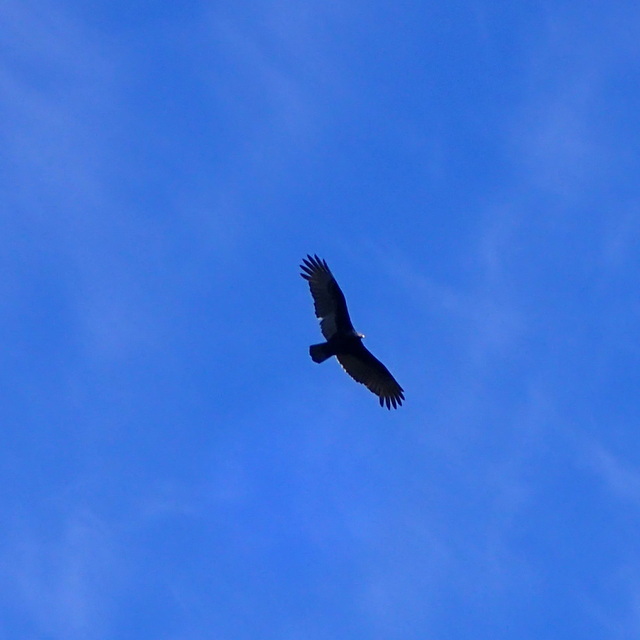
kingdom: Animalia
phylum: Chordata
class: Aves
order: Accipitriformes
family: Cathartidae
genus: Cathartes
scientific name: Cathartes aura
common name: Turkey vulture
